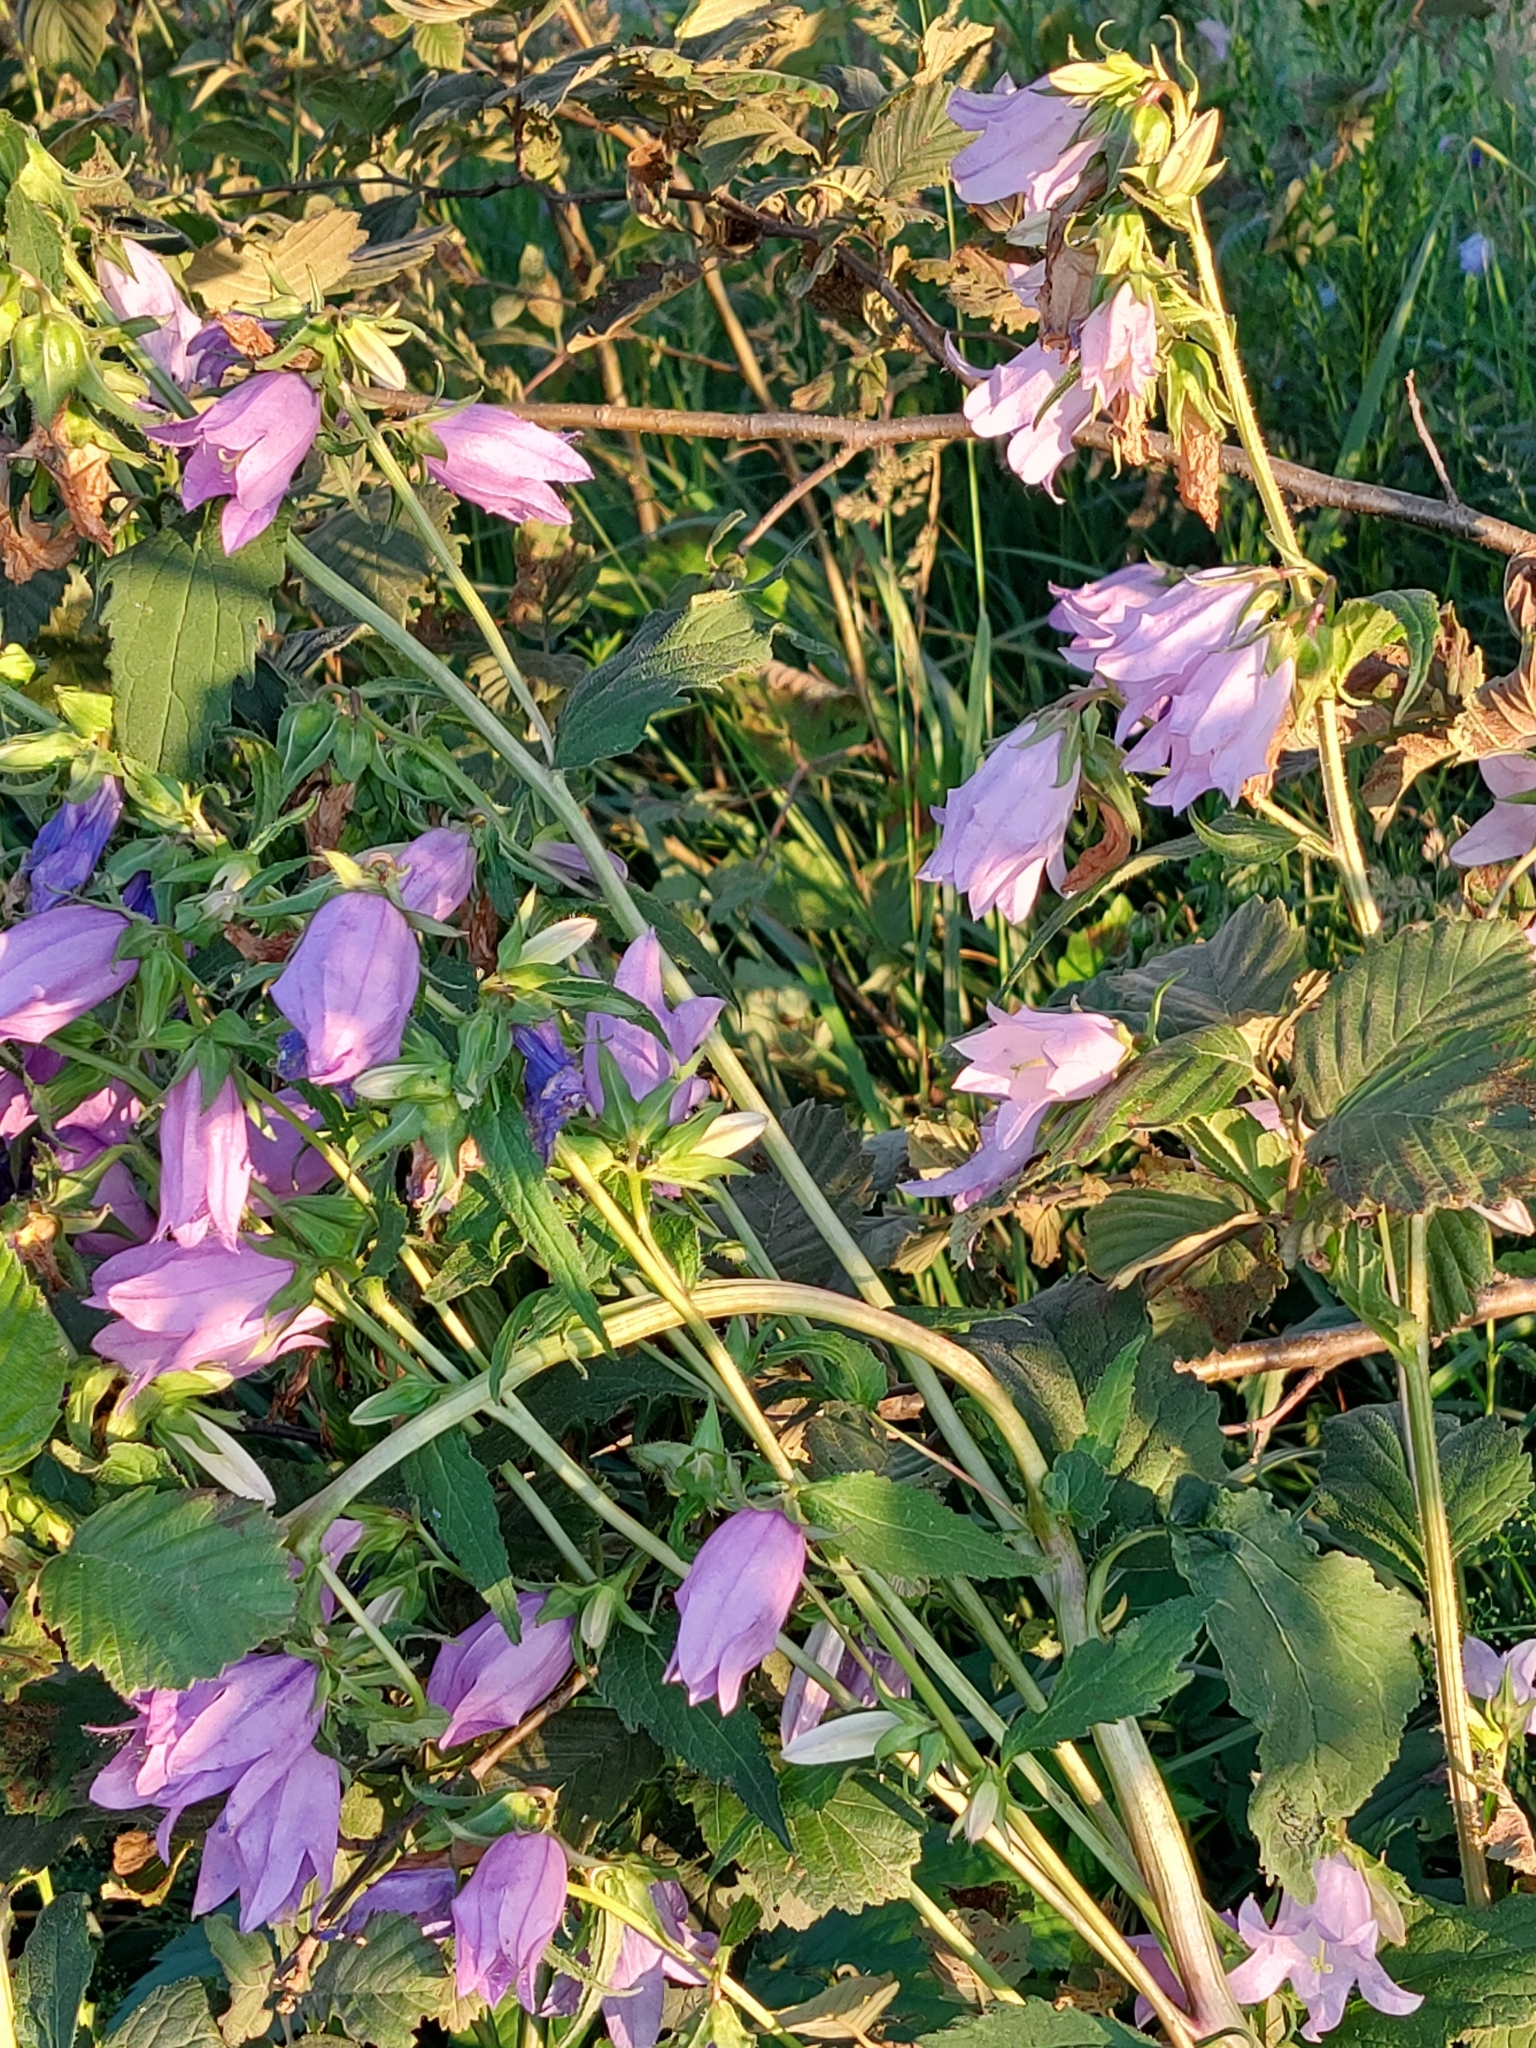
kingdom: Plantae
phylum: Tracheophyta
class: Magnoliopsida
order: Asterales
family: Campanulaceae
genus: Campanula
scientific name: Campanula trachelium
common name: Nettle-leaved bellflower
